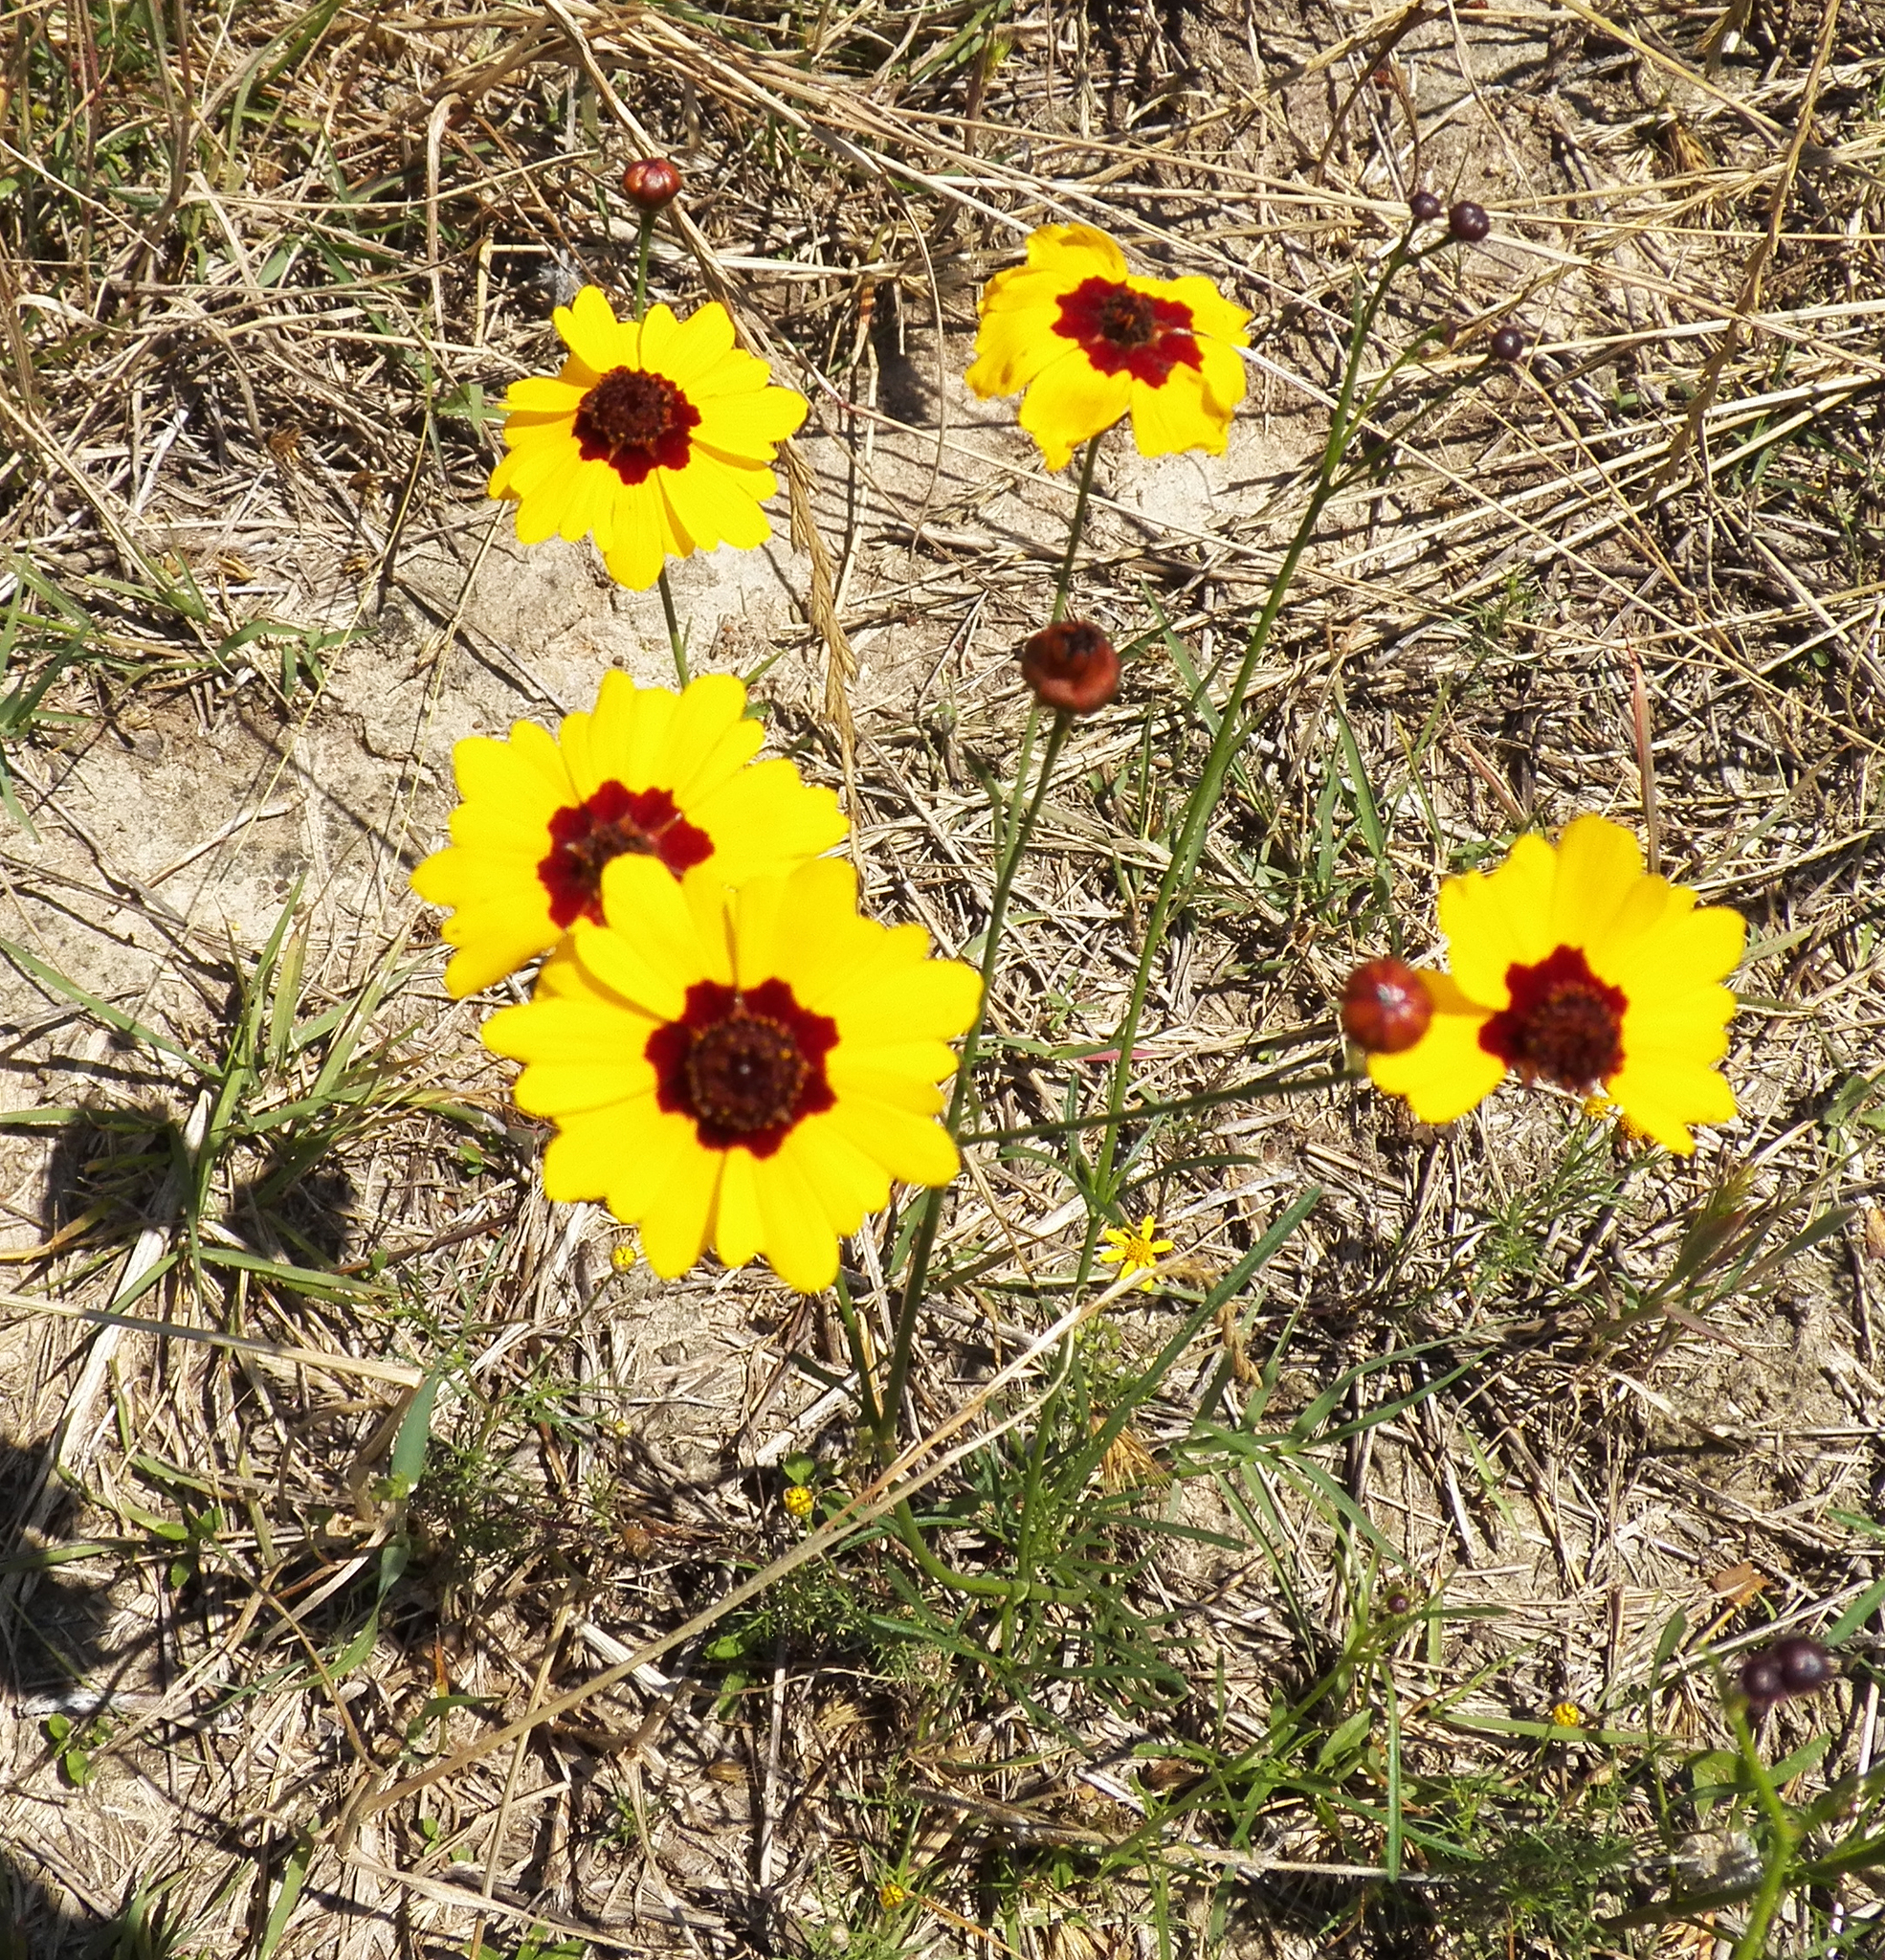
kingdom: Plantae
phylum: Tracheophyta
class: Magnoliopsida
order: Asterales
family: Asteraceae
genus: Coreopsis
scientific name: Coreopsis tinctoria
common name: Garden tickseed
